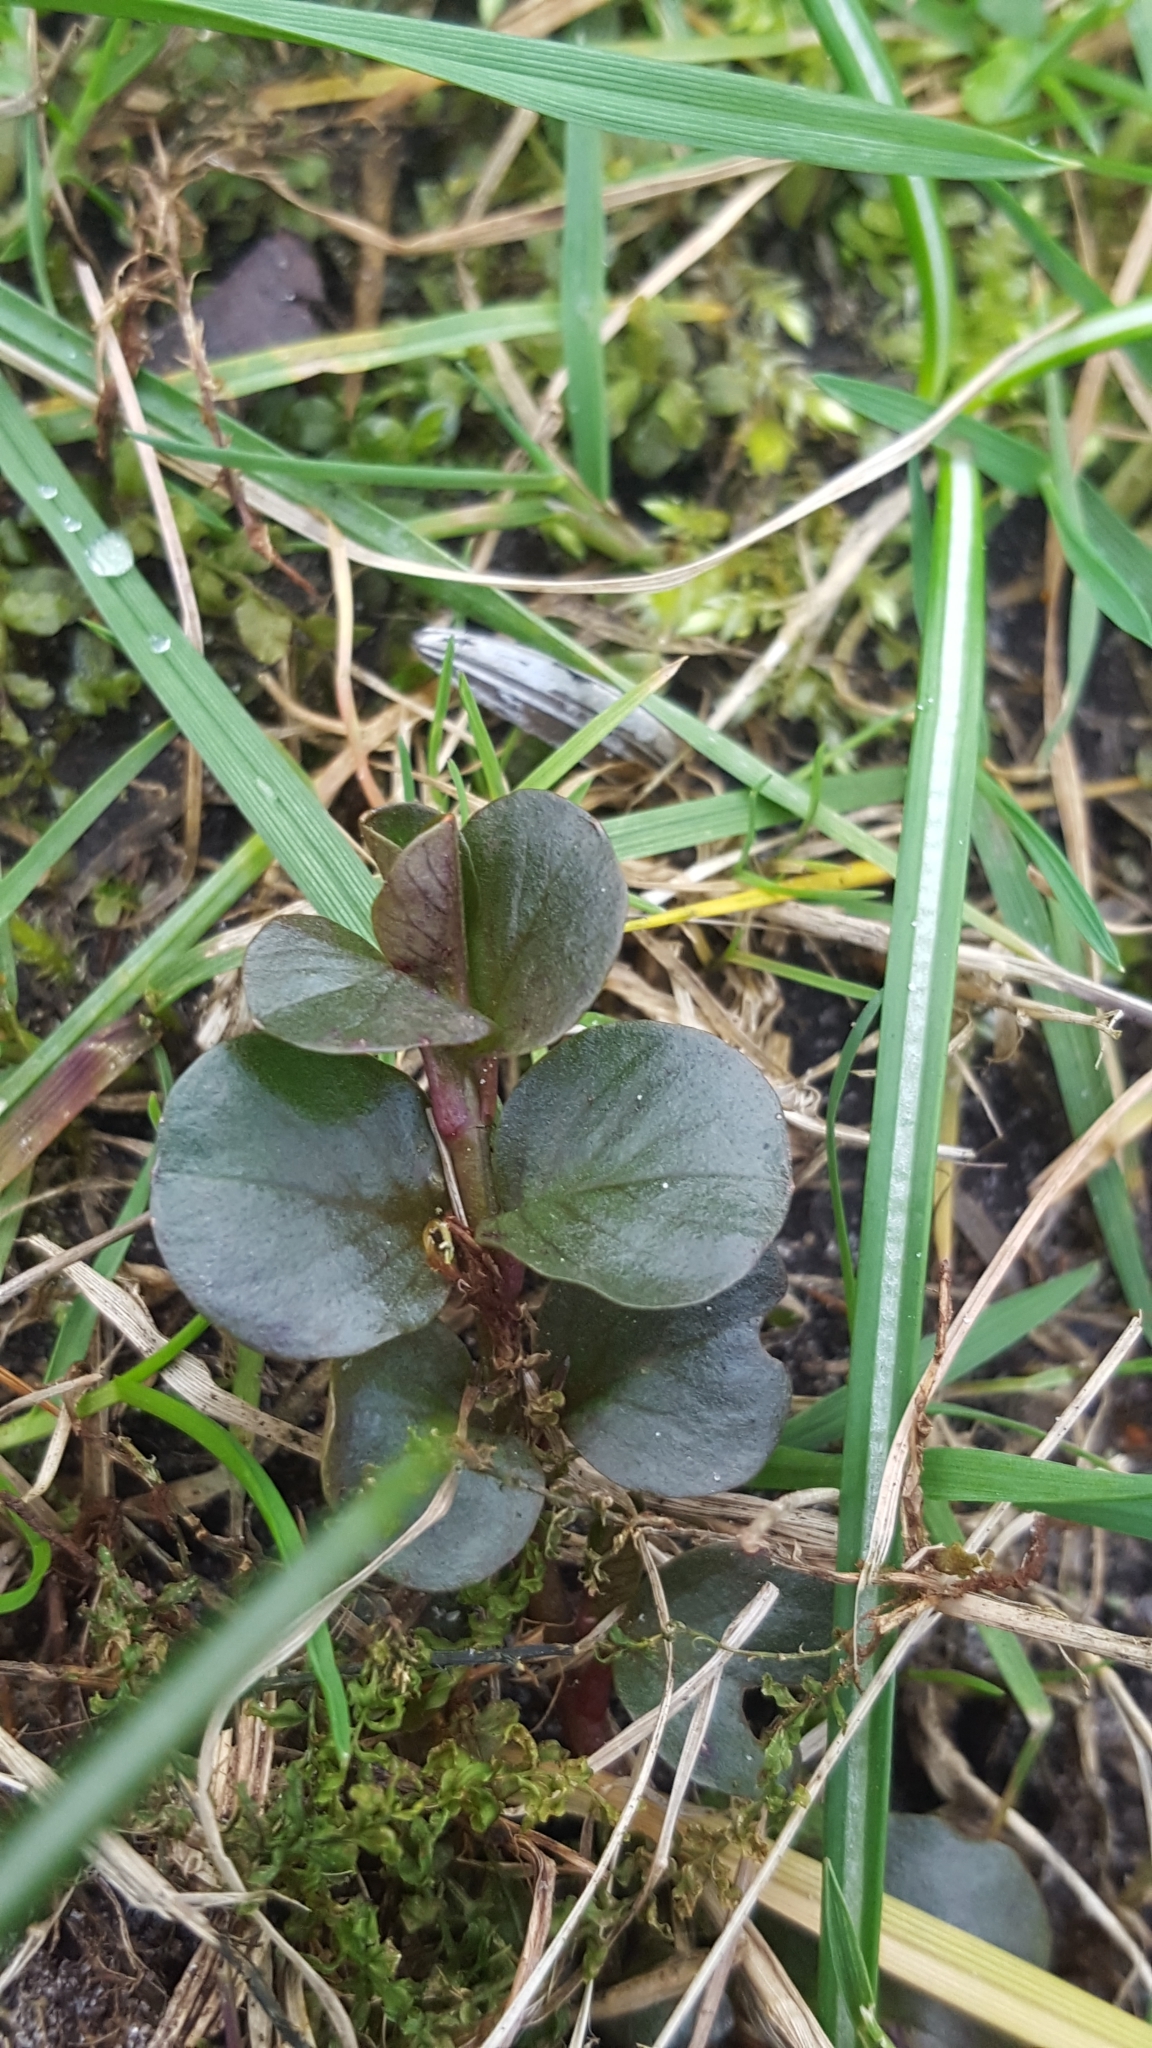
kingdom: Plantae
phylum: Tracheophyta
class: Magnoliopsida
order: Ericales
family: Primulaceae
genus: Lysimachia
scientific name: Lysimachia nummularia
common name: Moneywort
